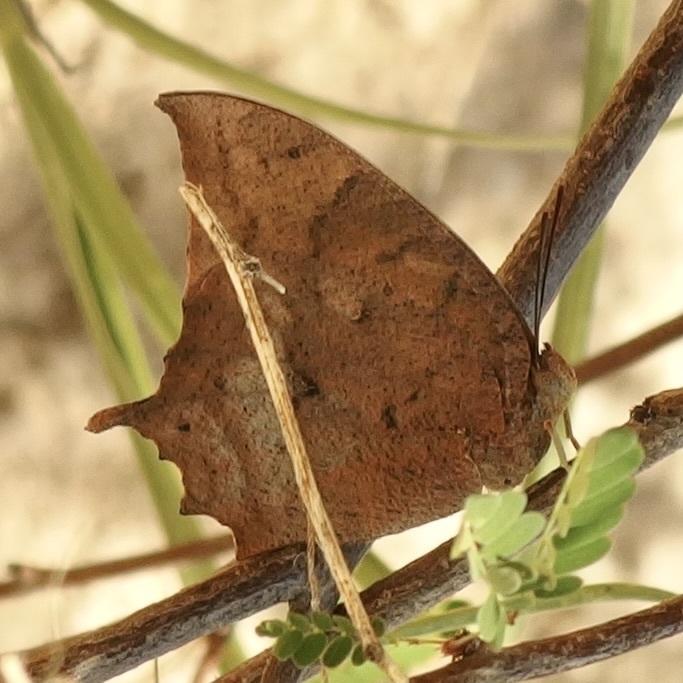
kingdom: Animalia
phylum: Arthropoda
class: Insecta
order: Lepidoptera
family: Nymphalidae
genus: Anaea
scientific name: Anaea aidea
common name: Tropical leafwing
